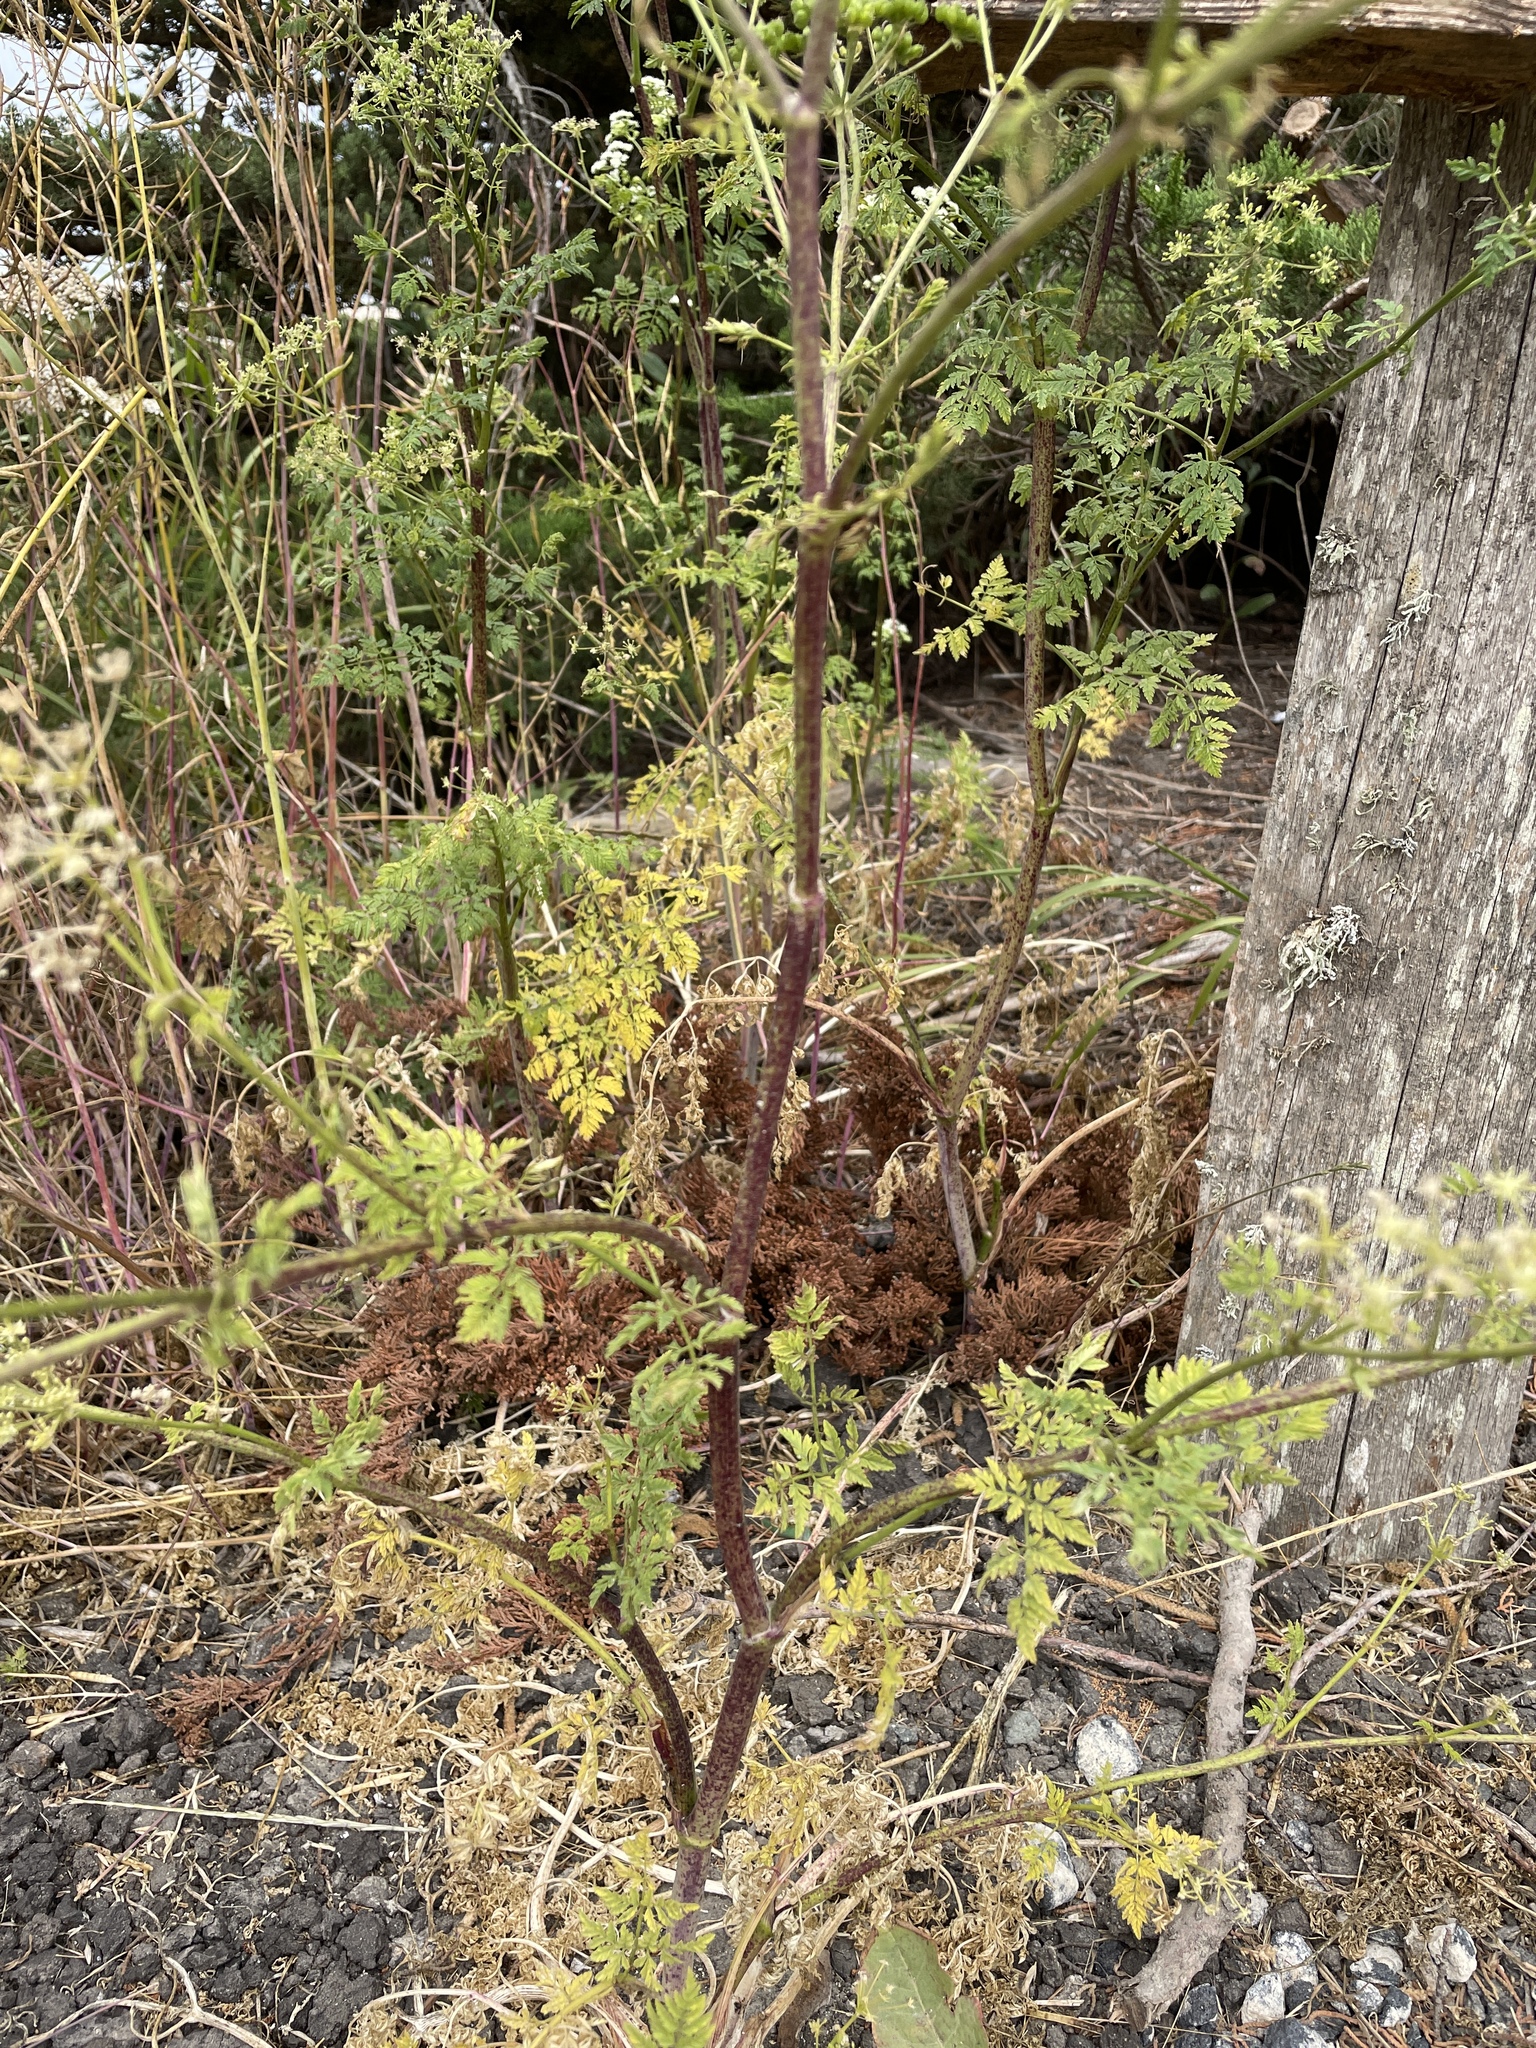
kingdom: Plantae
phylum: Tracheophyta
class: Magnoliopsida
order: Apiales
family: Apiaceae
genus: Conium
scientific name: Conium maculatum
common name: Hemlock
